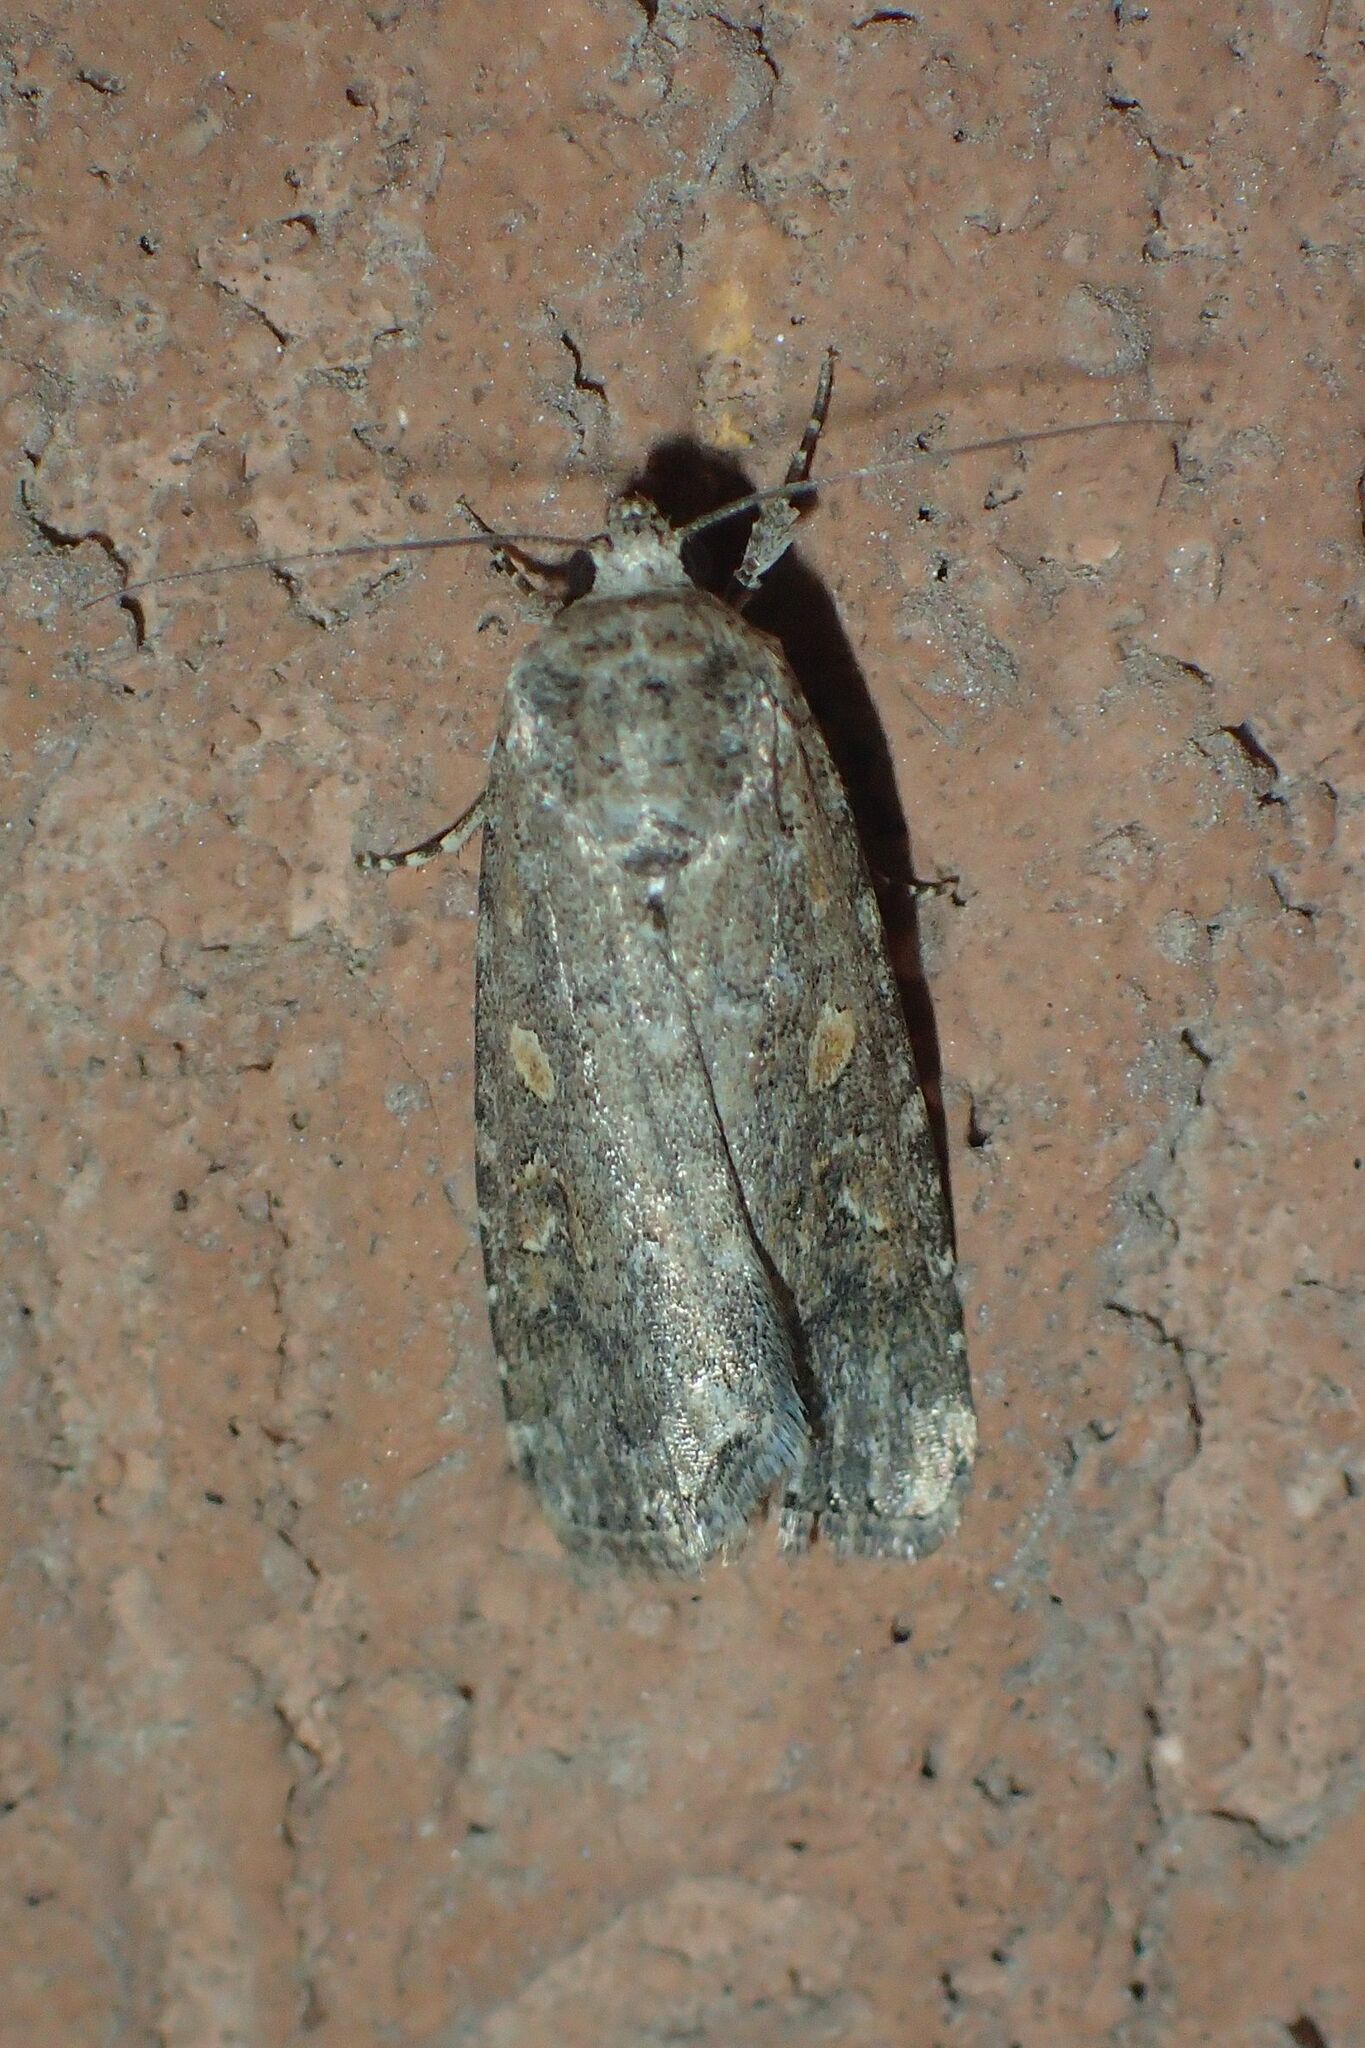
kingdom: Animalia
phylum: Arthropoda
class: Insecta
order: Lepidoptera
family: Noctuidae
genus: Spodoptera
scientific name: Spodoptera exigua
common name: Beet armyworm
